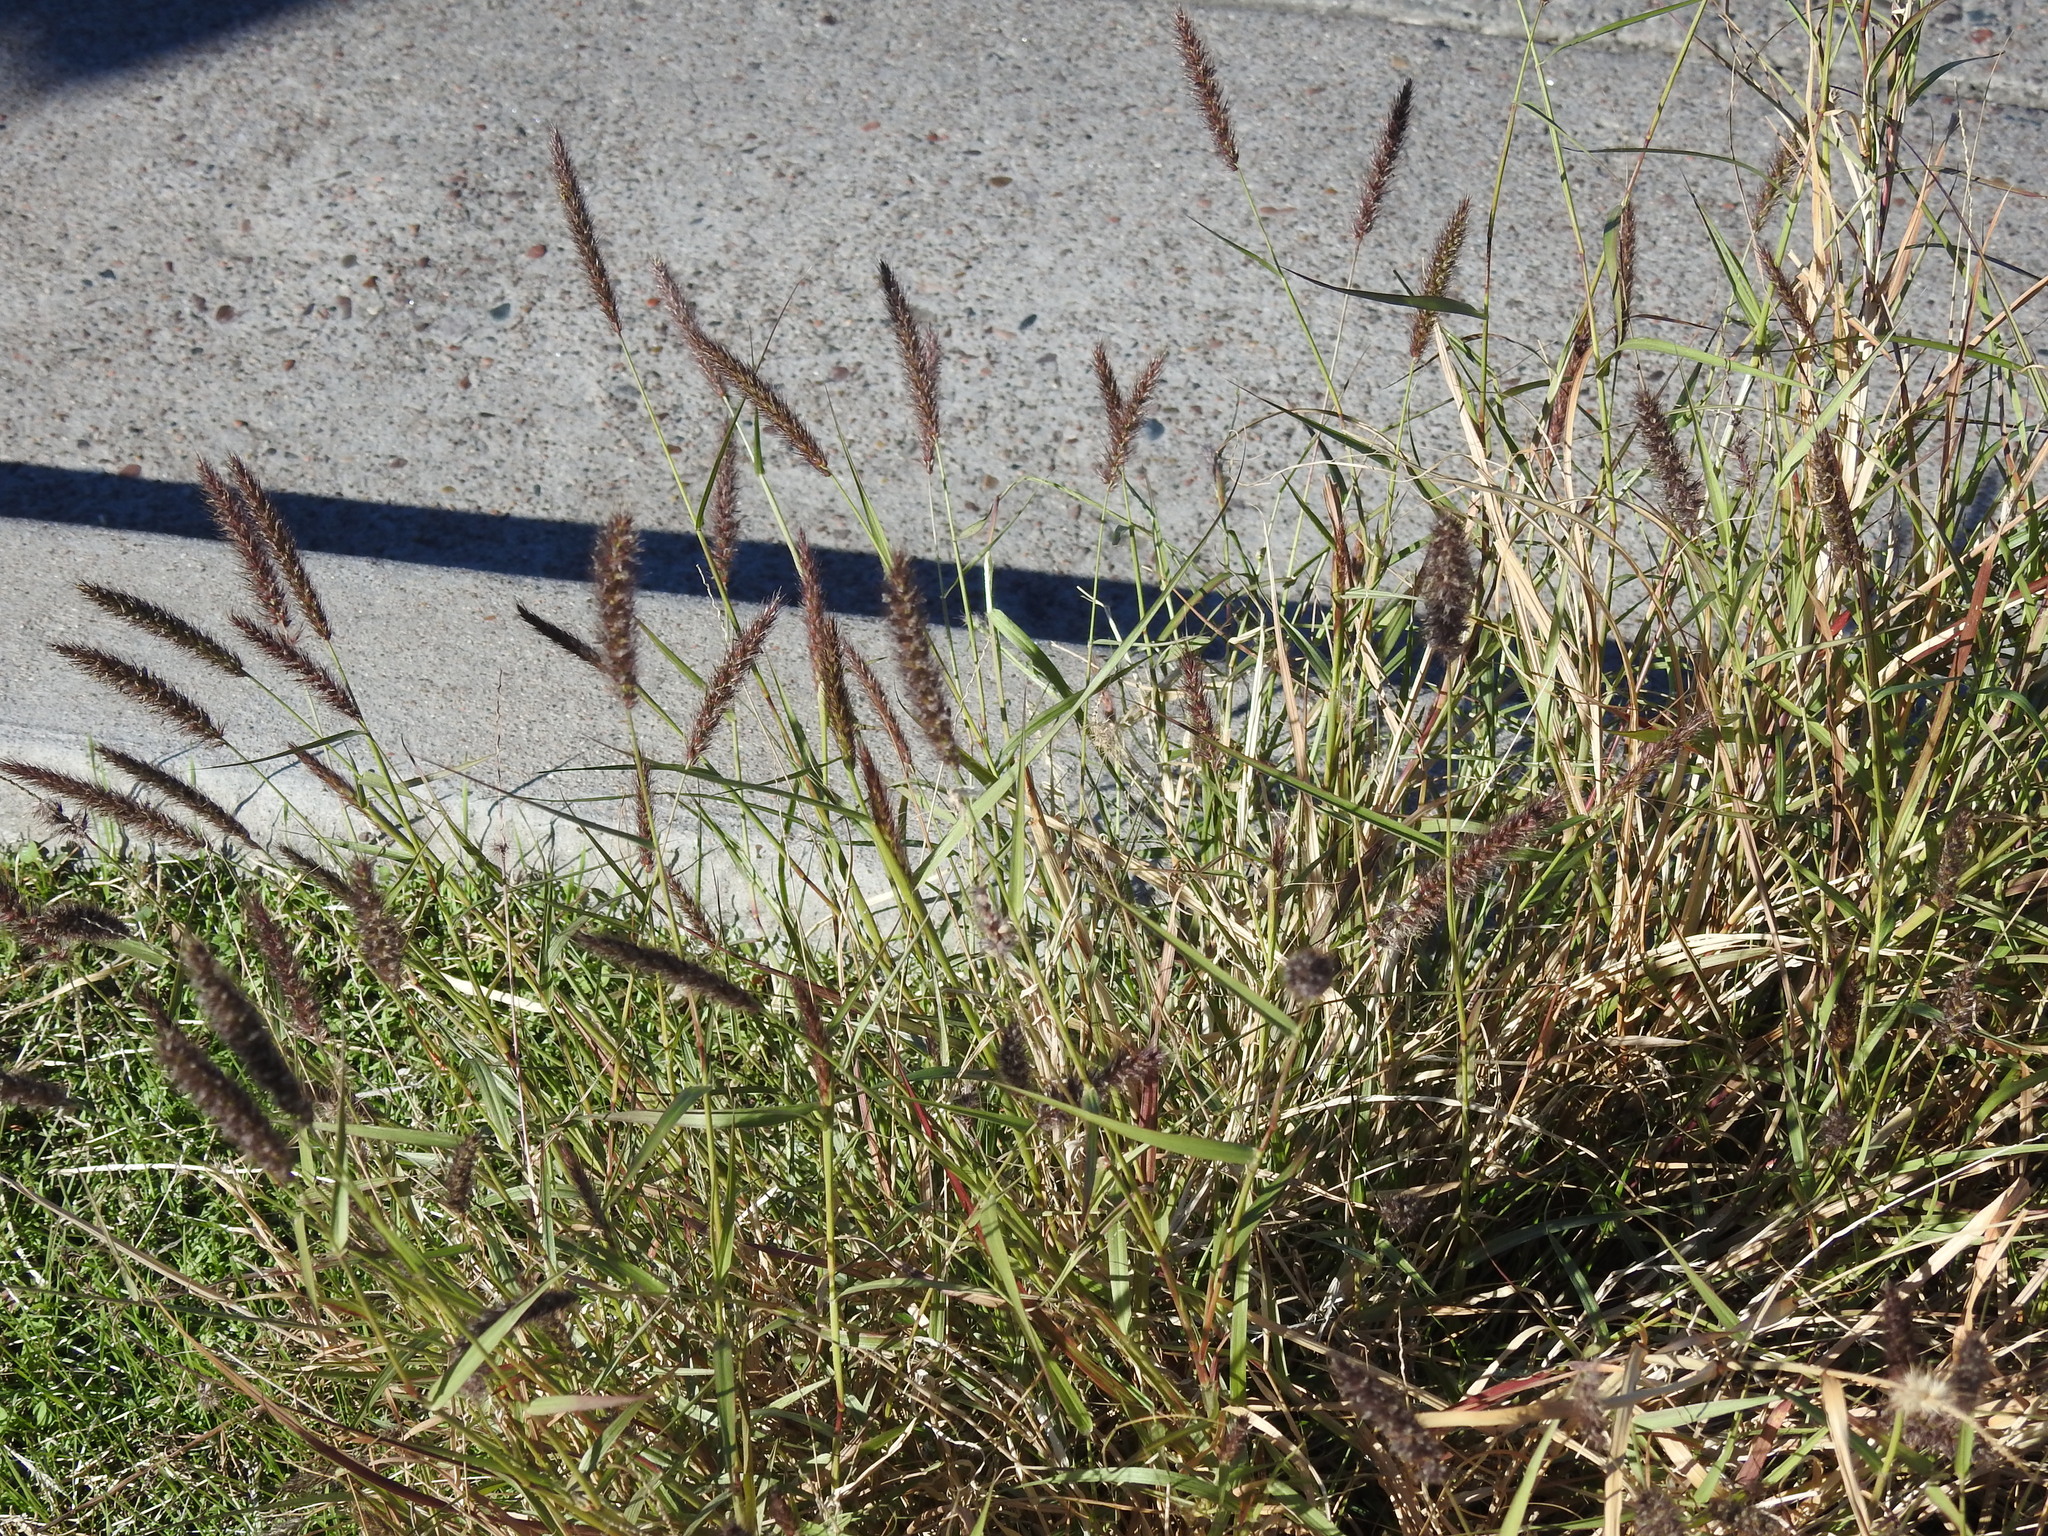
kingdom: Plantae
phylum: Tracheophyta
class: Liliopsida
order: Poales
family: Poaceae
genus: Cenchrus
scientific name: Cenchrus ciliaris
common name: Buffelgrass
